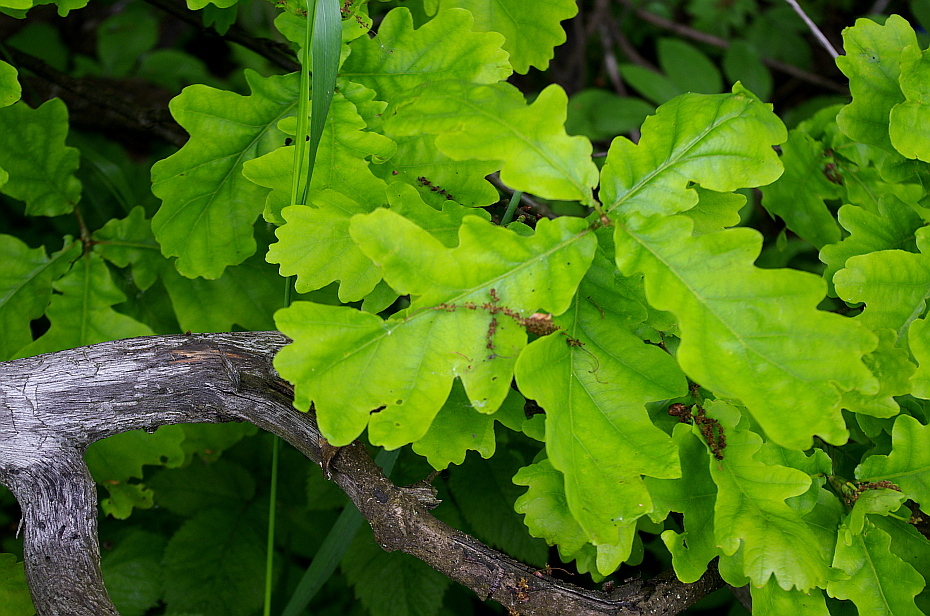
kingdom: Plantae
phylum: Tracheophyta
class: Magnoliopsida
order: Fagales
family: Fagaceae
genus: Quercus
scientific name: Quercus robur
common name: Pedunculate oak
